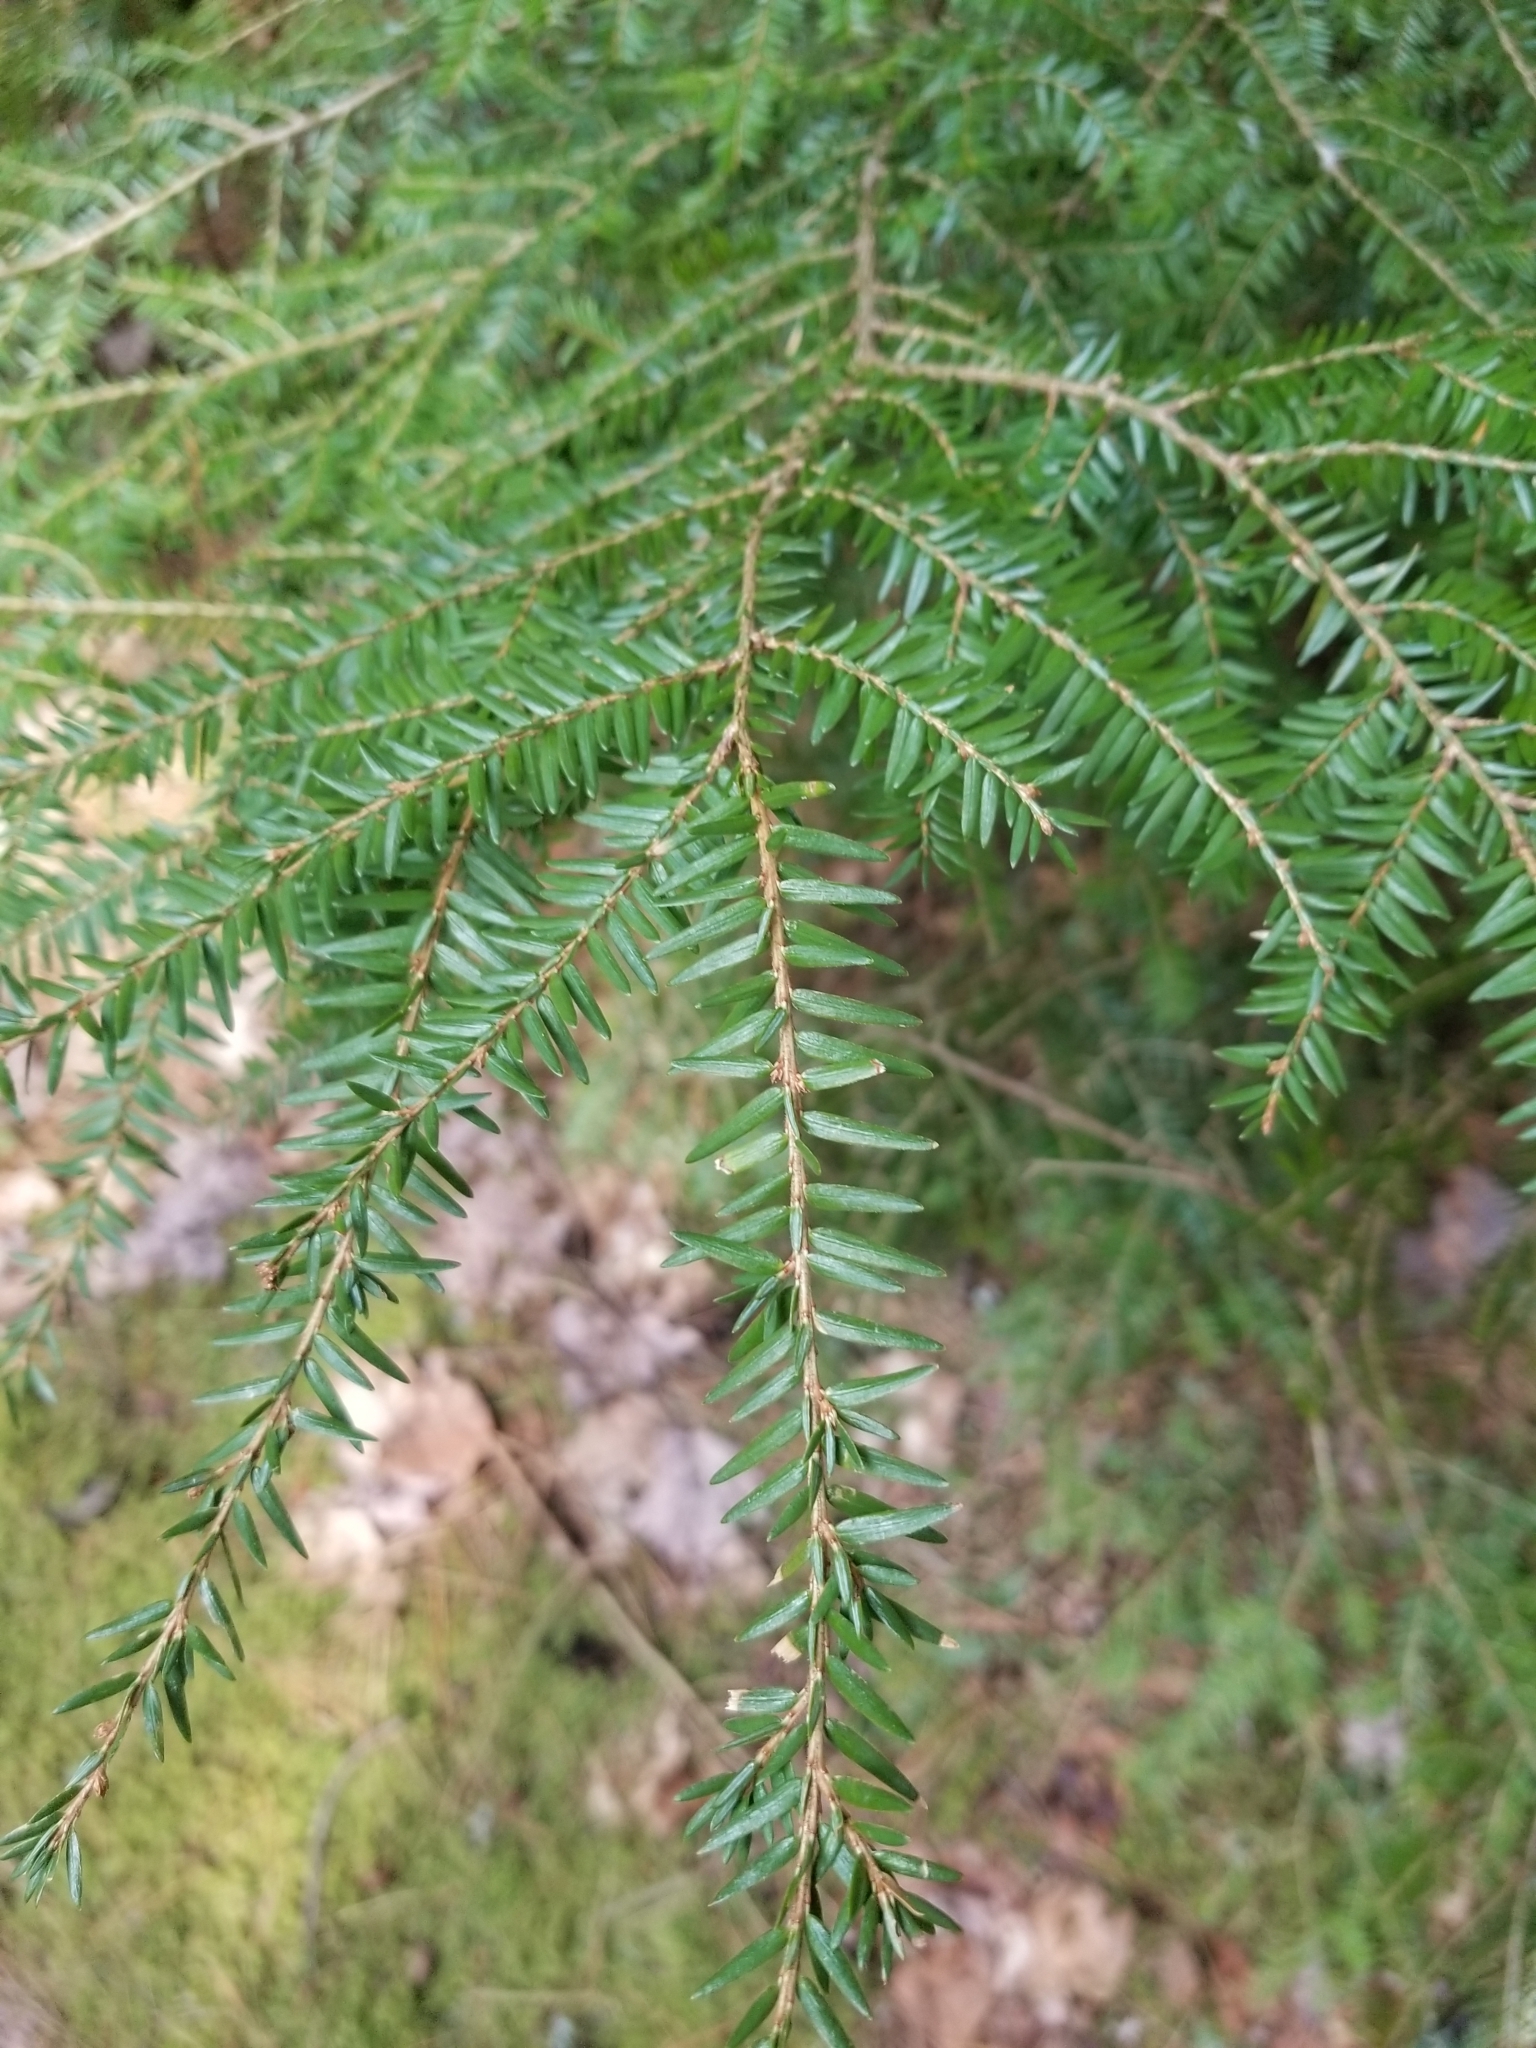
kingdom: Plantae
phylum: Tracheophyta
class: Pinopsida
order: Pinales
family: Pinaceae
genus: Tsuga
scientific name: Tsuga canadensis
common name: Eastern hemlock
